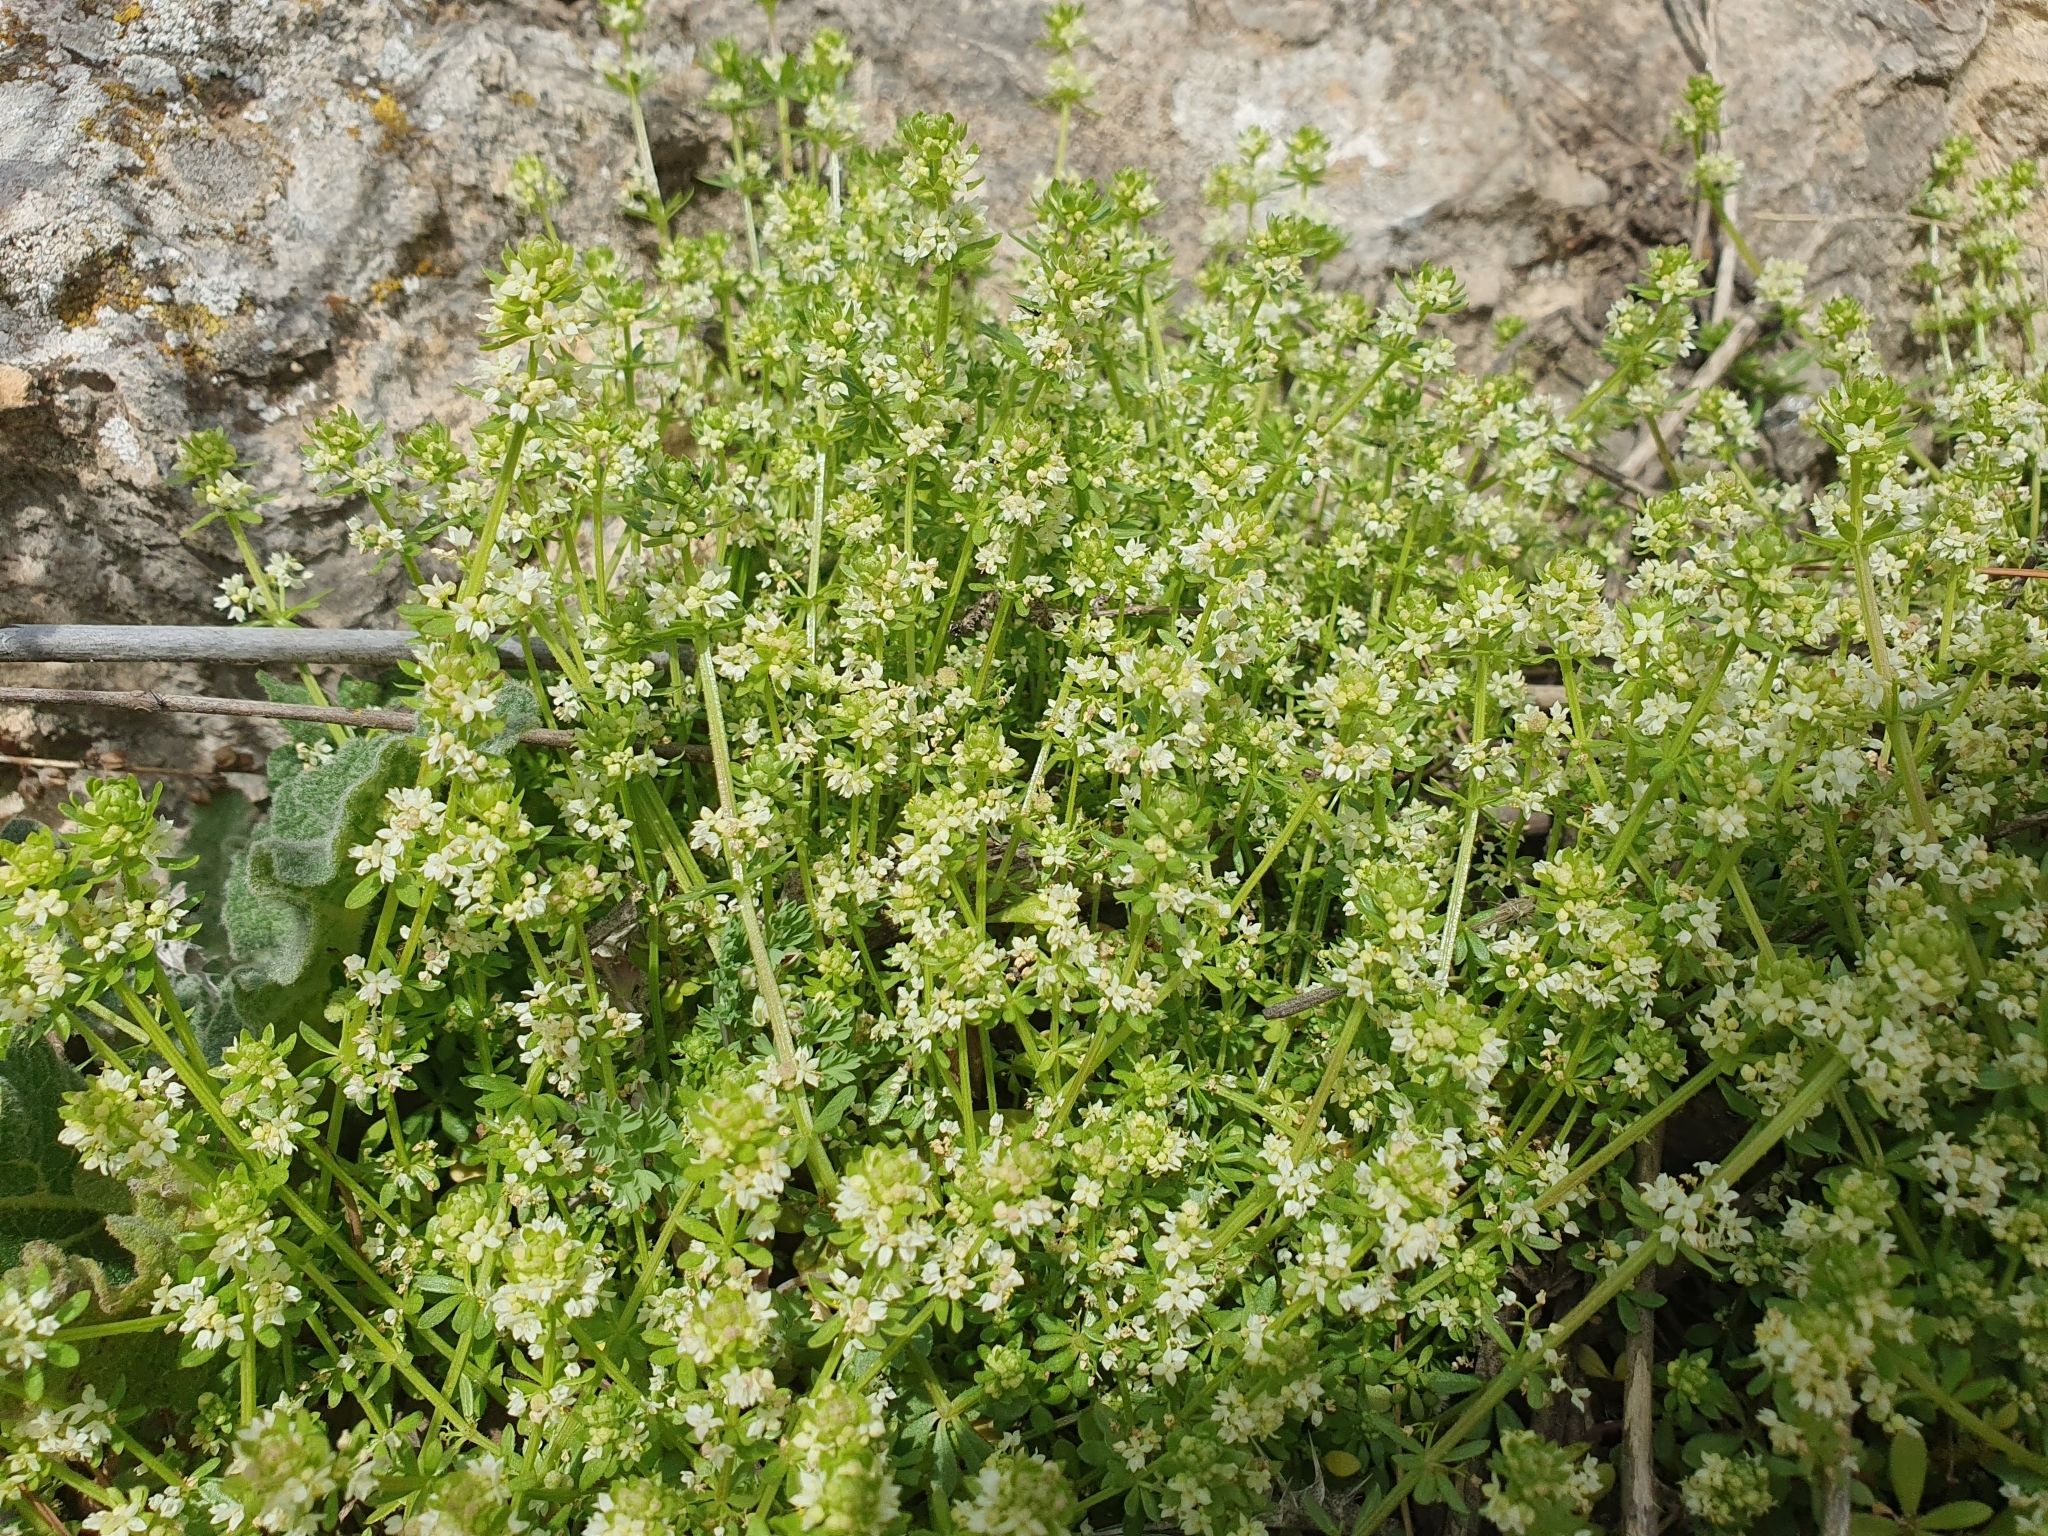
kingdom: Plantae
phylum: Tracheophyta
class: Magnoliopsida
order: Gentianales
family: Rubiaceae
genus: Galium
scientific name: Galium verrucosum
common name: Warty bedstraw
